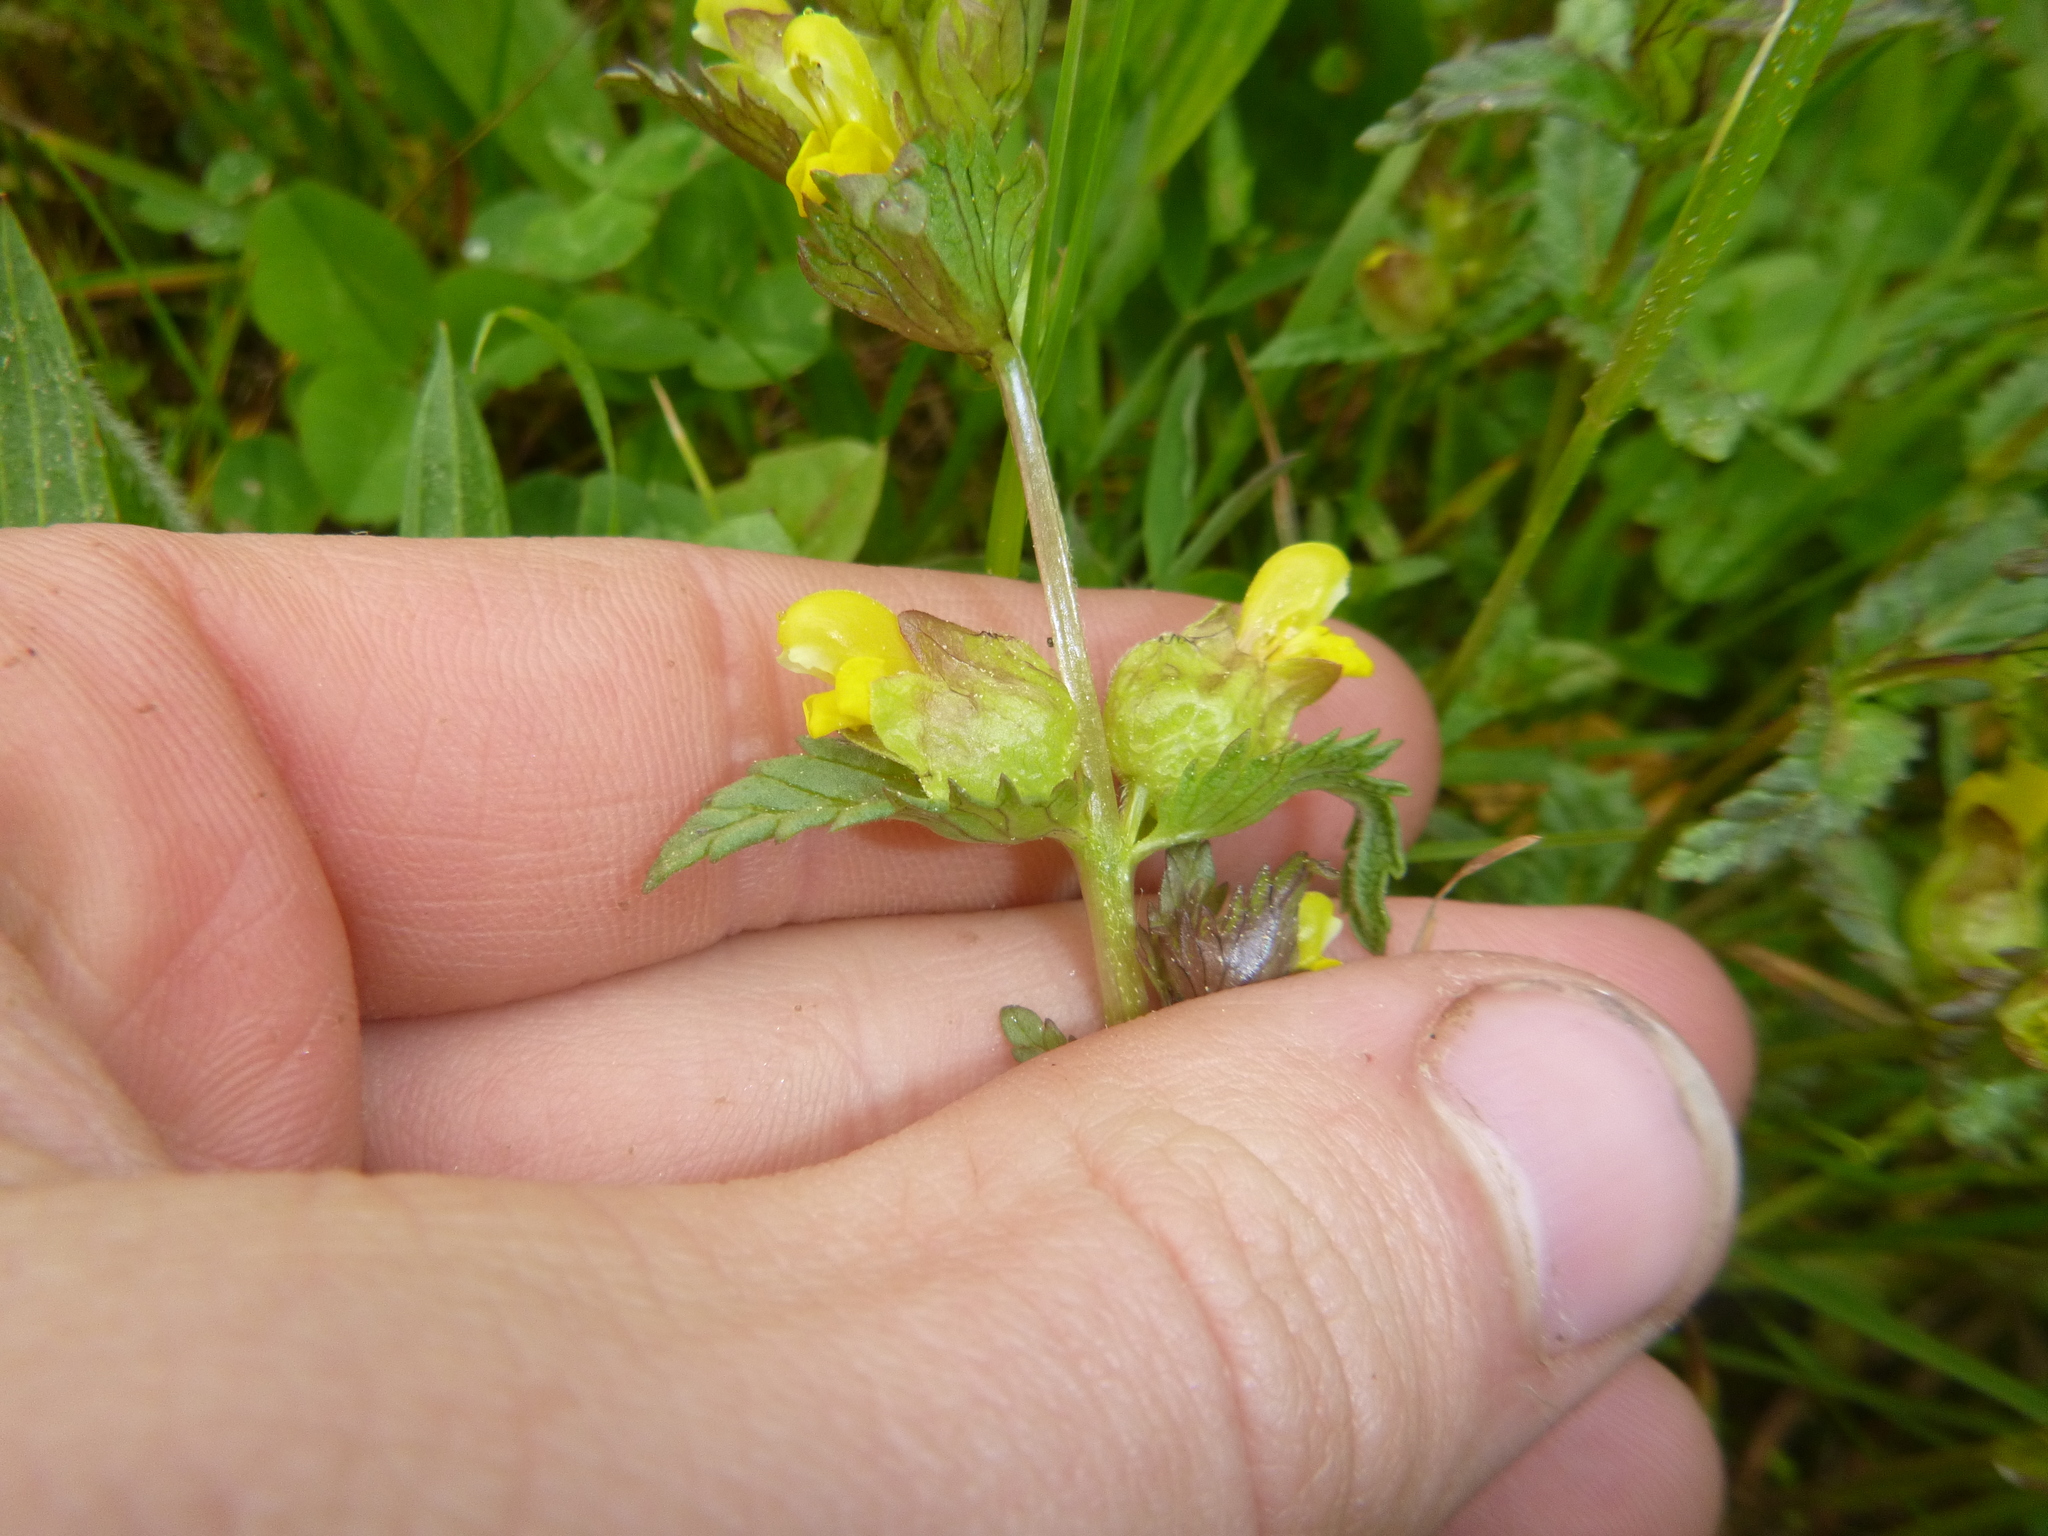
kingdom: Plantae
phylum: Tracheophyta
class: Magnoliopsida
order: Lamiales
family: Orobanchaceae
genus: Rhinanthus
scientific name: Rhinanthus minor
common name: Yellow-rattle
